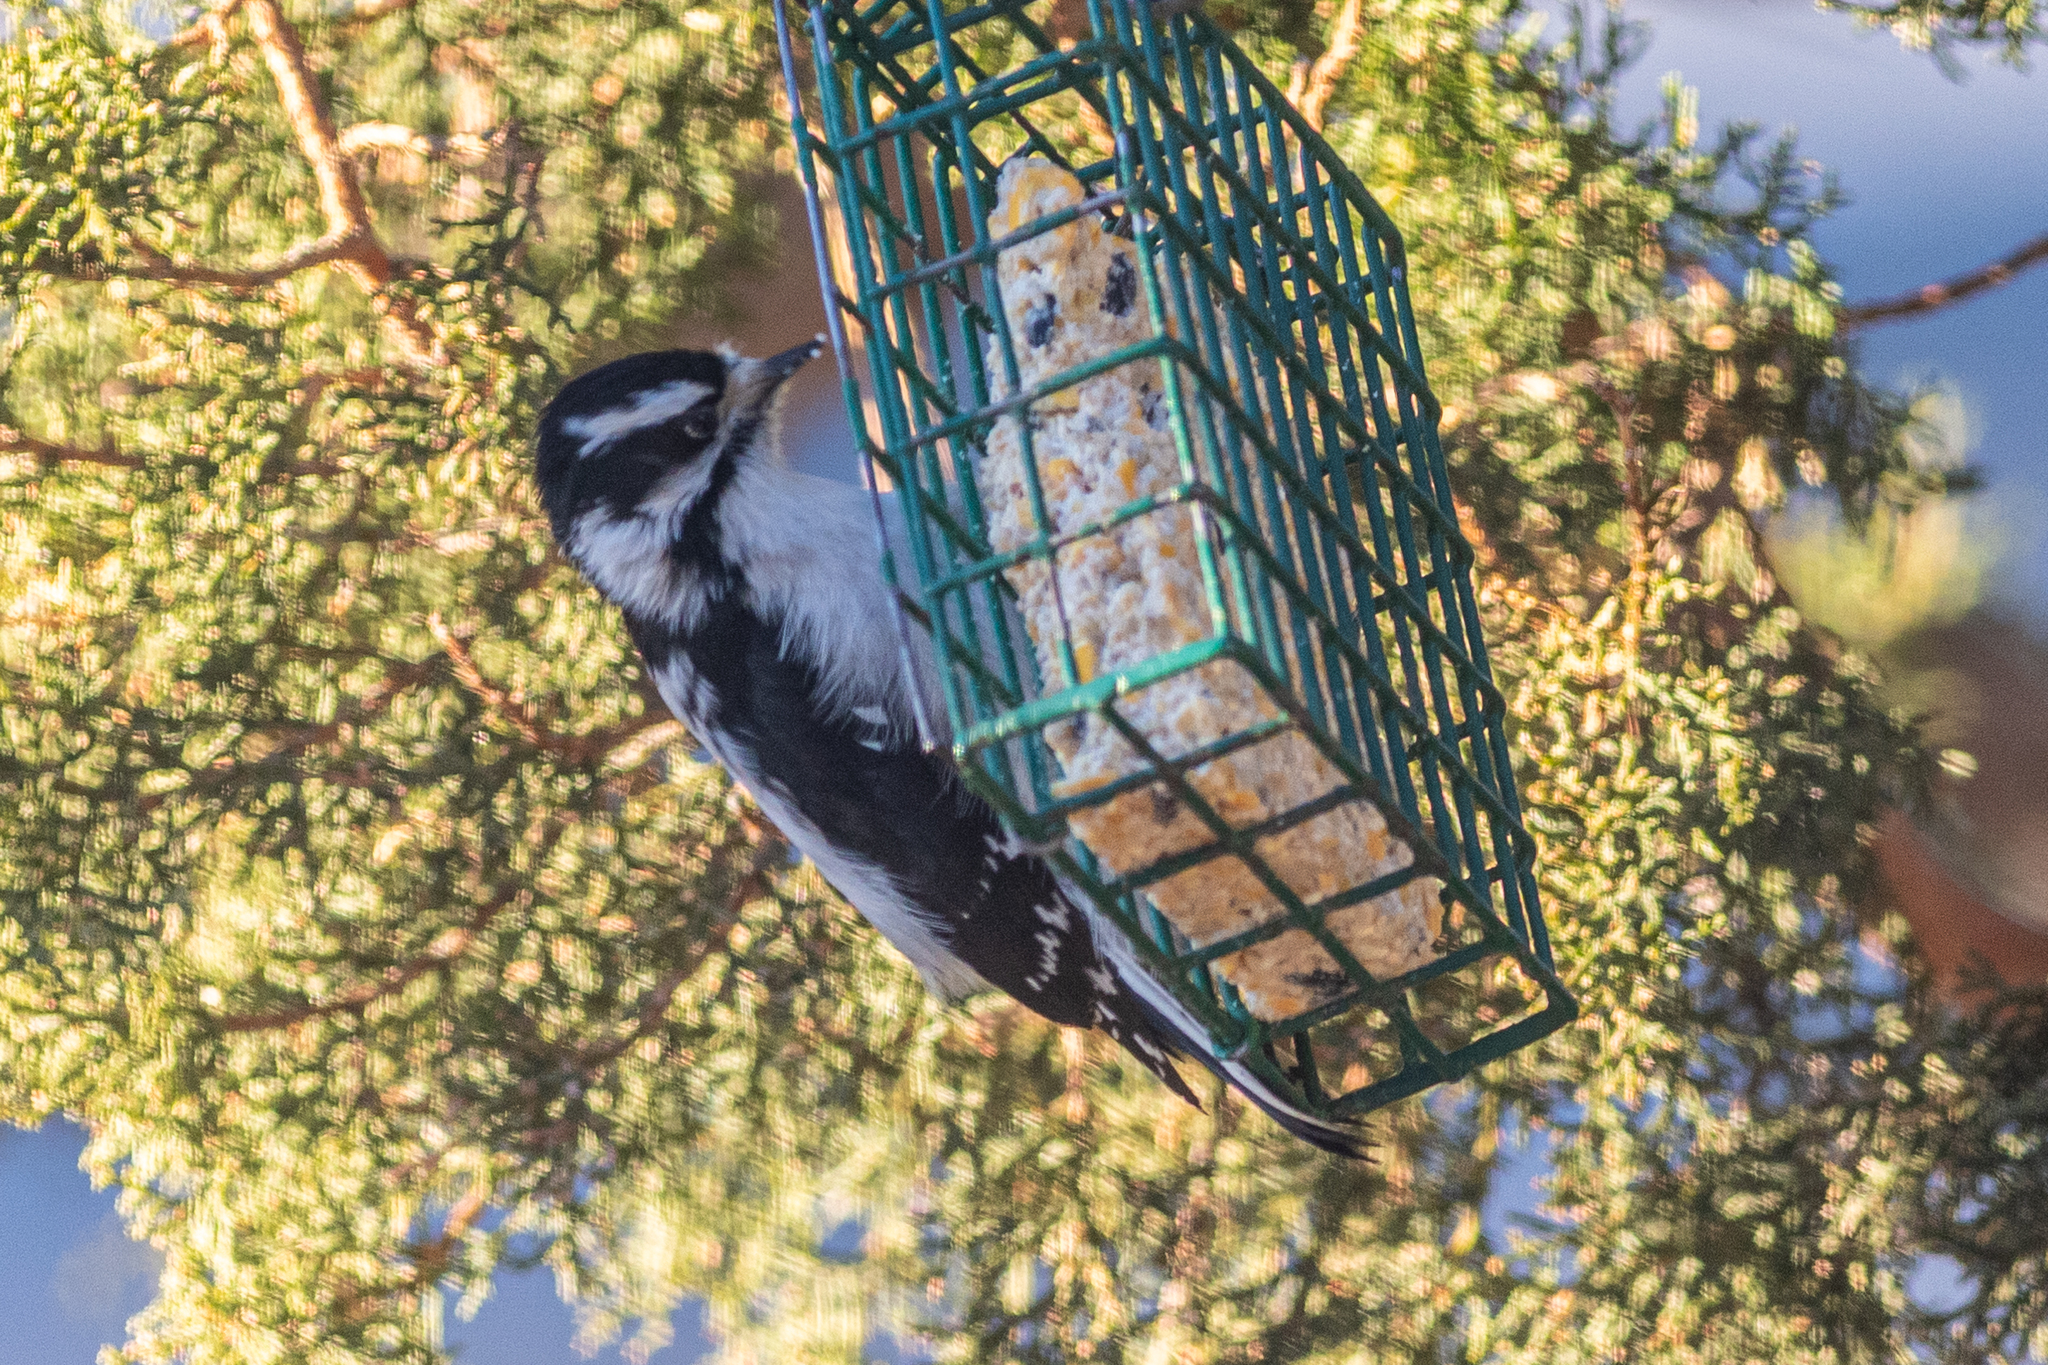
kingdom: Animalia
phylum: Chordata
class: Aves
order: Piciformes
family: Picidae
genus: Dryobates
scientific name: Dryobates pubescens
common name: Downy woodpecker
